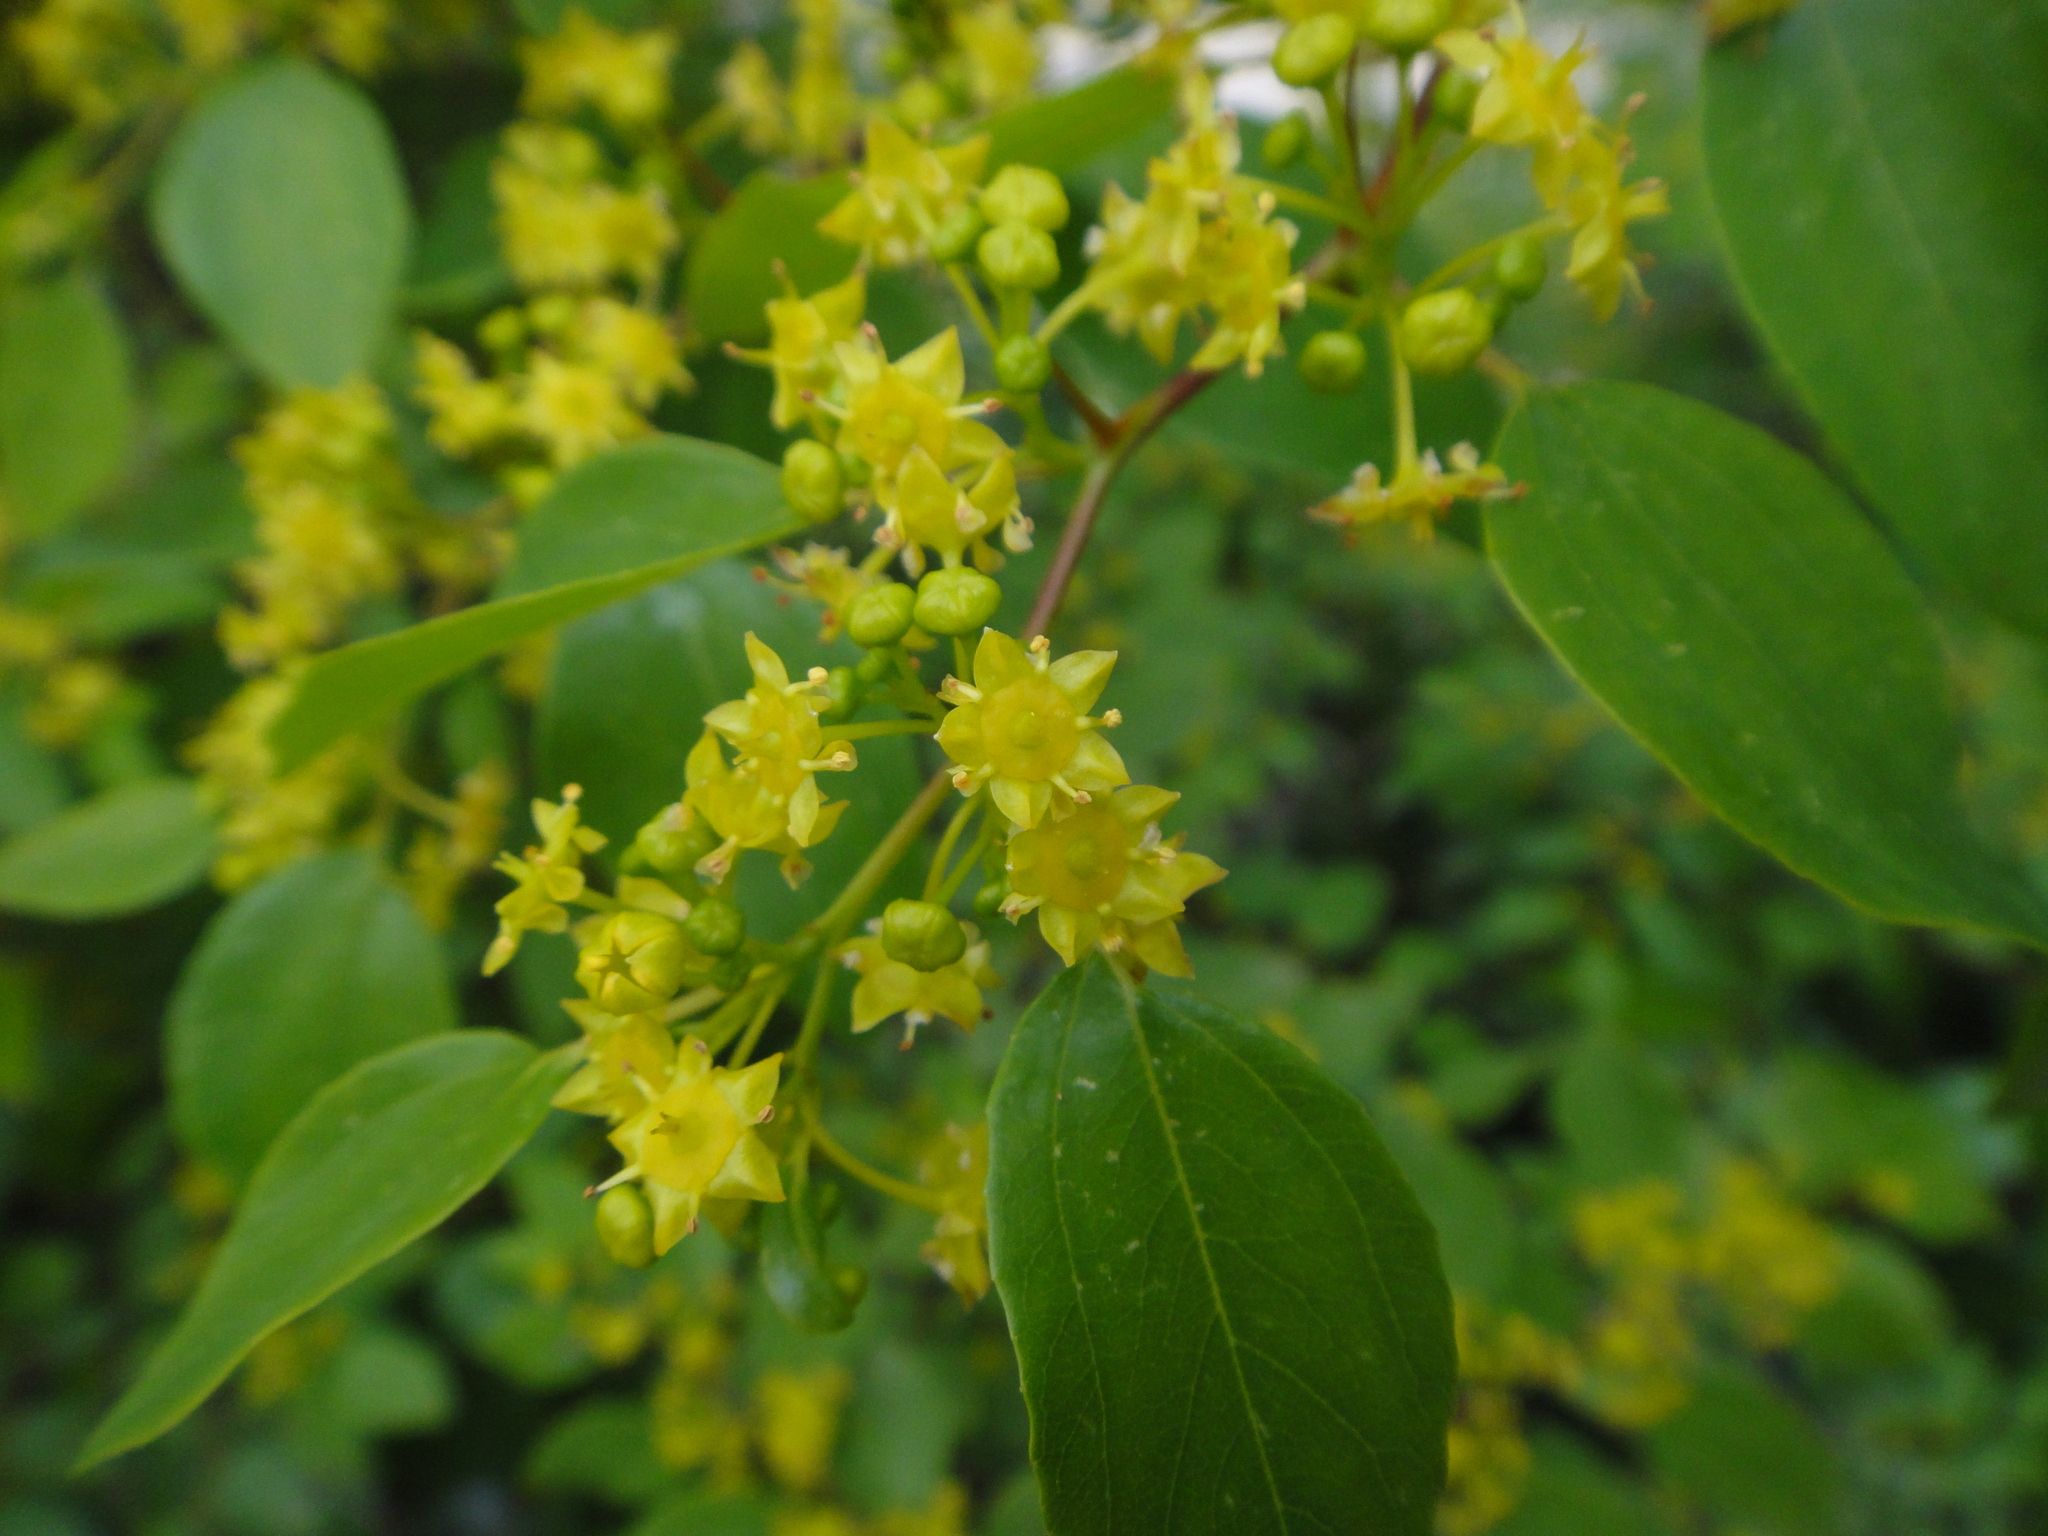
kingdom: Plantae
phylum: Tracheophyta
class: Magnoliopsida
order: Rosales
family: Rhamnaceae
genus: Paliurus
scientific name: Paliurus spina-christi
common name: Jeruselem thorn
